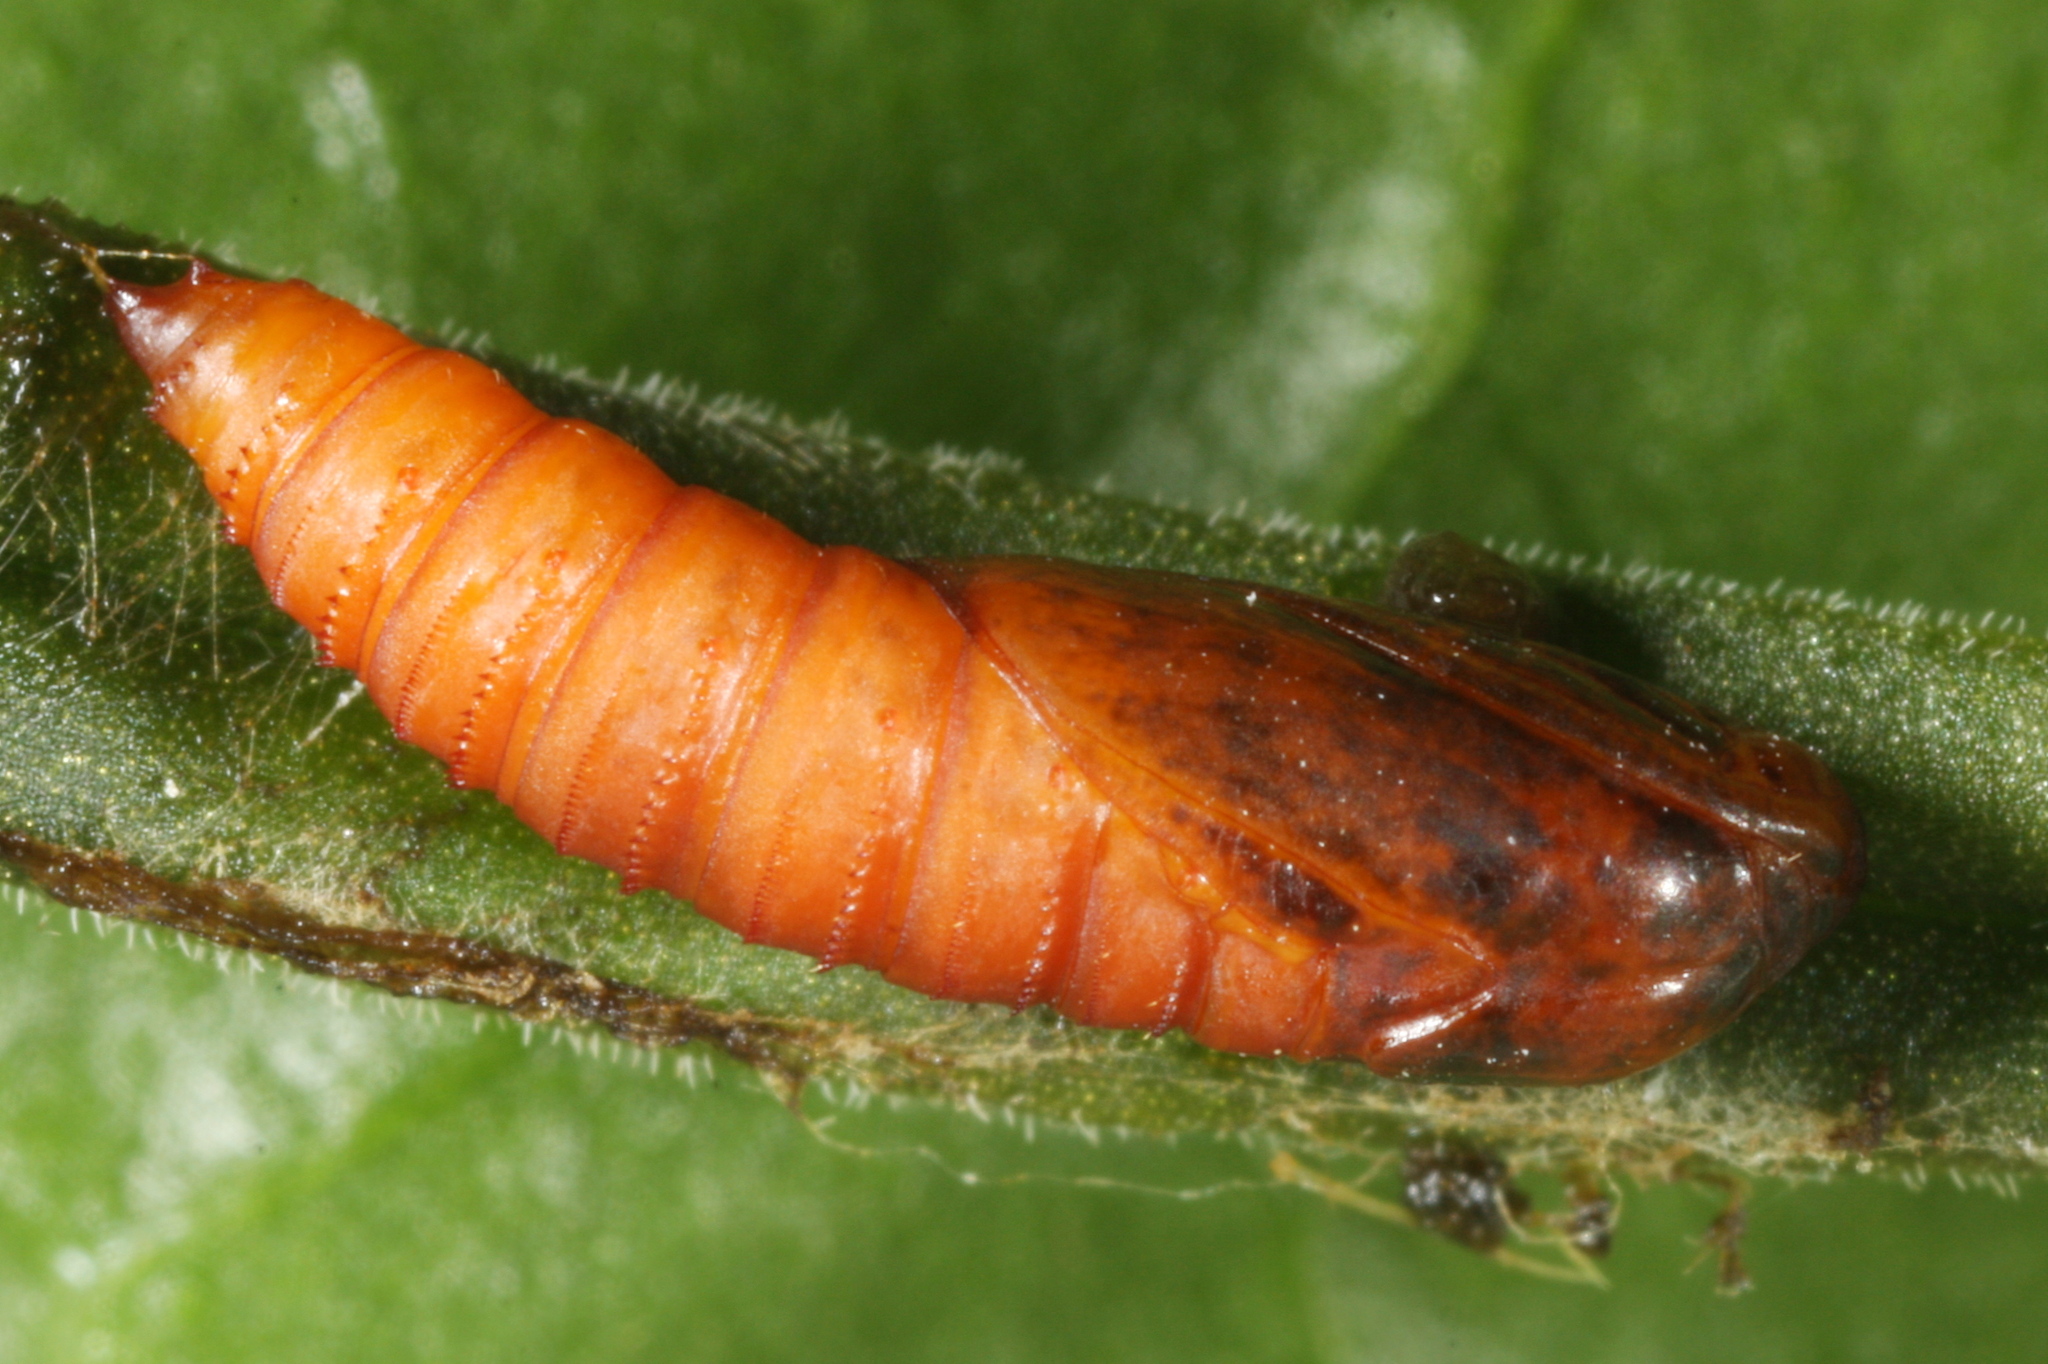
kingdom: Animalia
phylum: Arthropoda
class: Insecta
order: Lepidoptera
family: Tortricidae
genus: Selenodes
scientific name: Selenodes karelica
